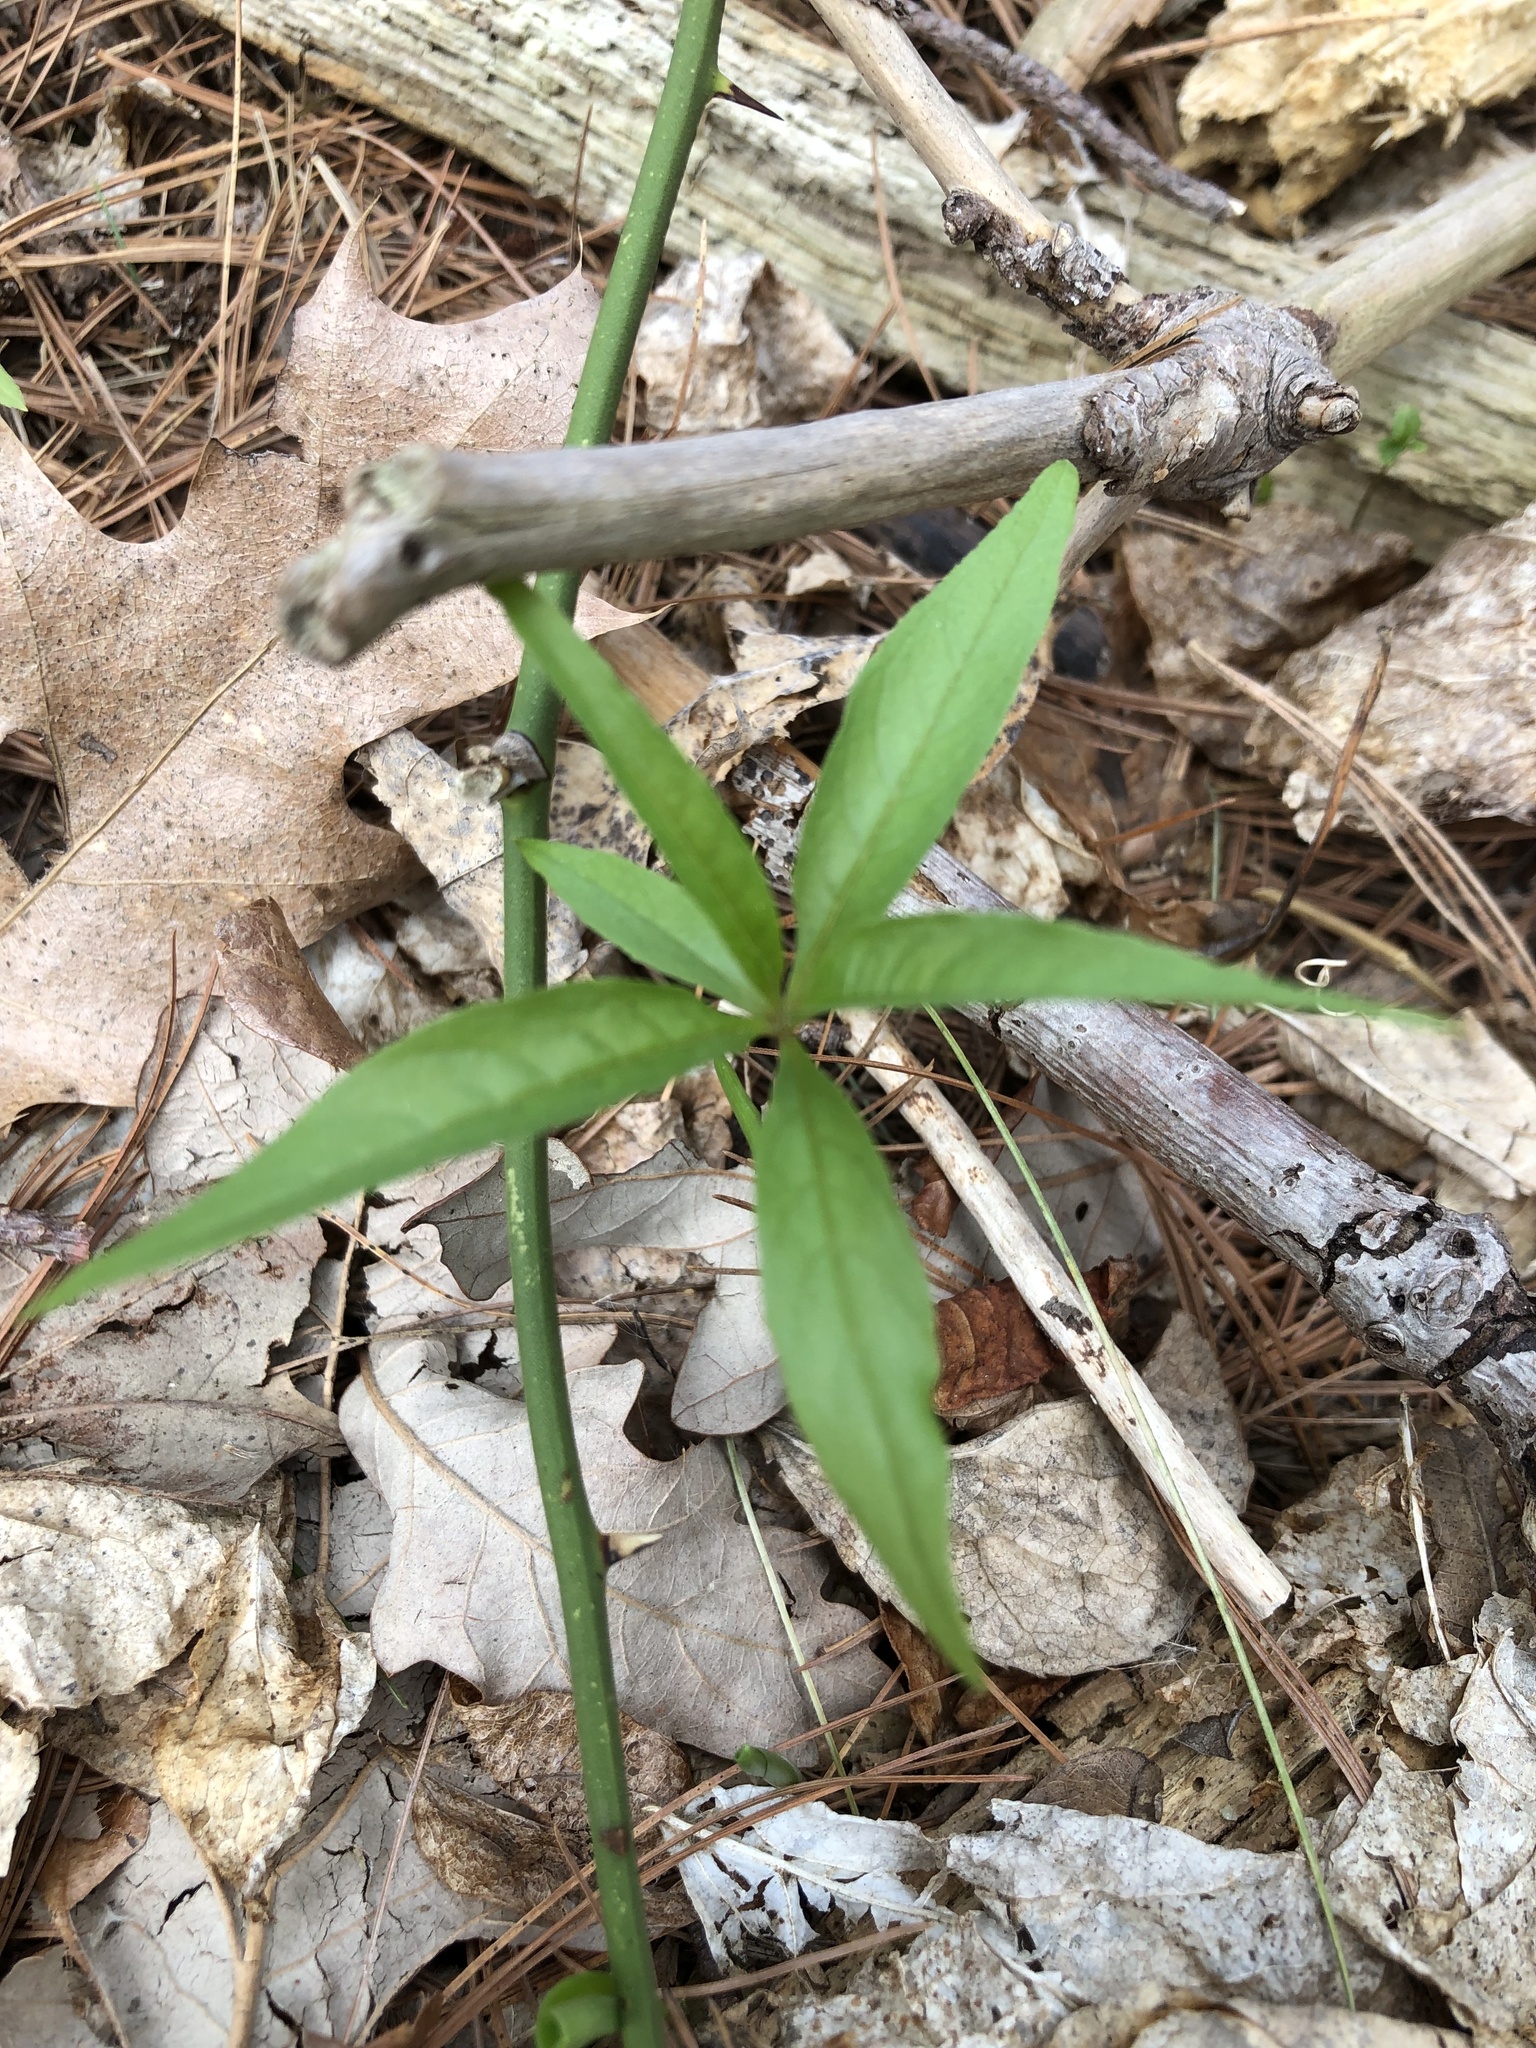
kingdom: Plantae
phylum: Tracheophyta
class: Magnoliopsida
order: Ericales
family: Primulaceae
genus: Lysimachia
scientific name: Lysimachia borealis
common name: American starflower
